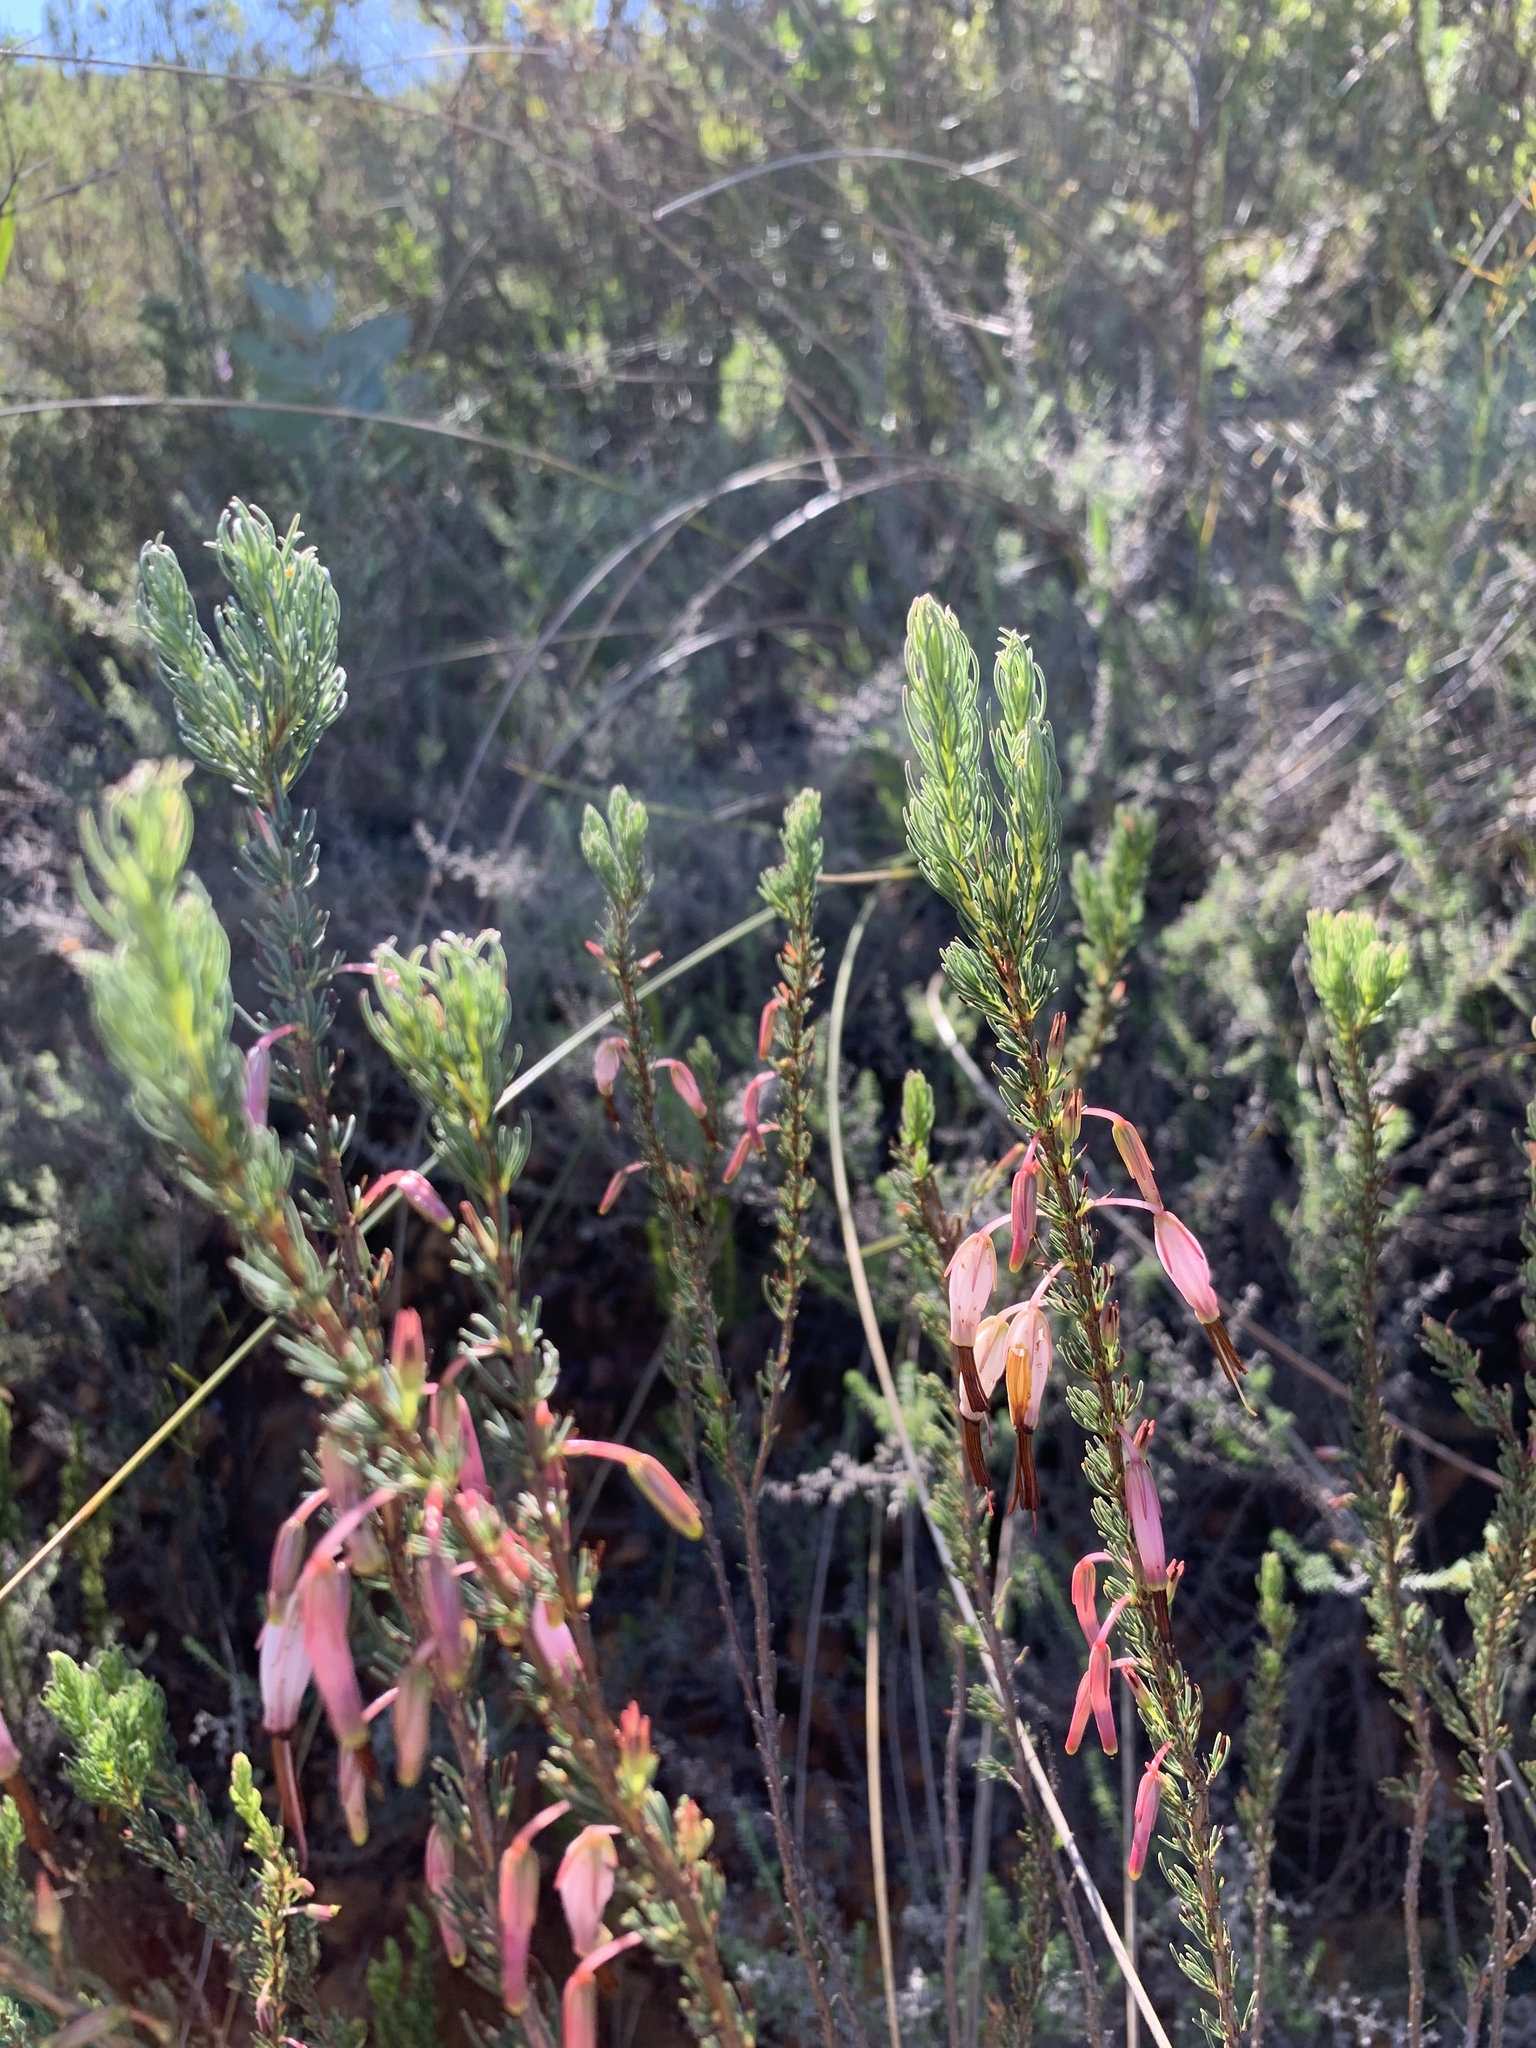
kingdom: Plantae
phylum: Tracheophyta
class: Magnoliopsida
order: Ericales
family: Ericaceae
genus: Erica
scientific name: Erica plukenetii
